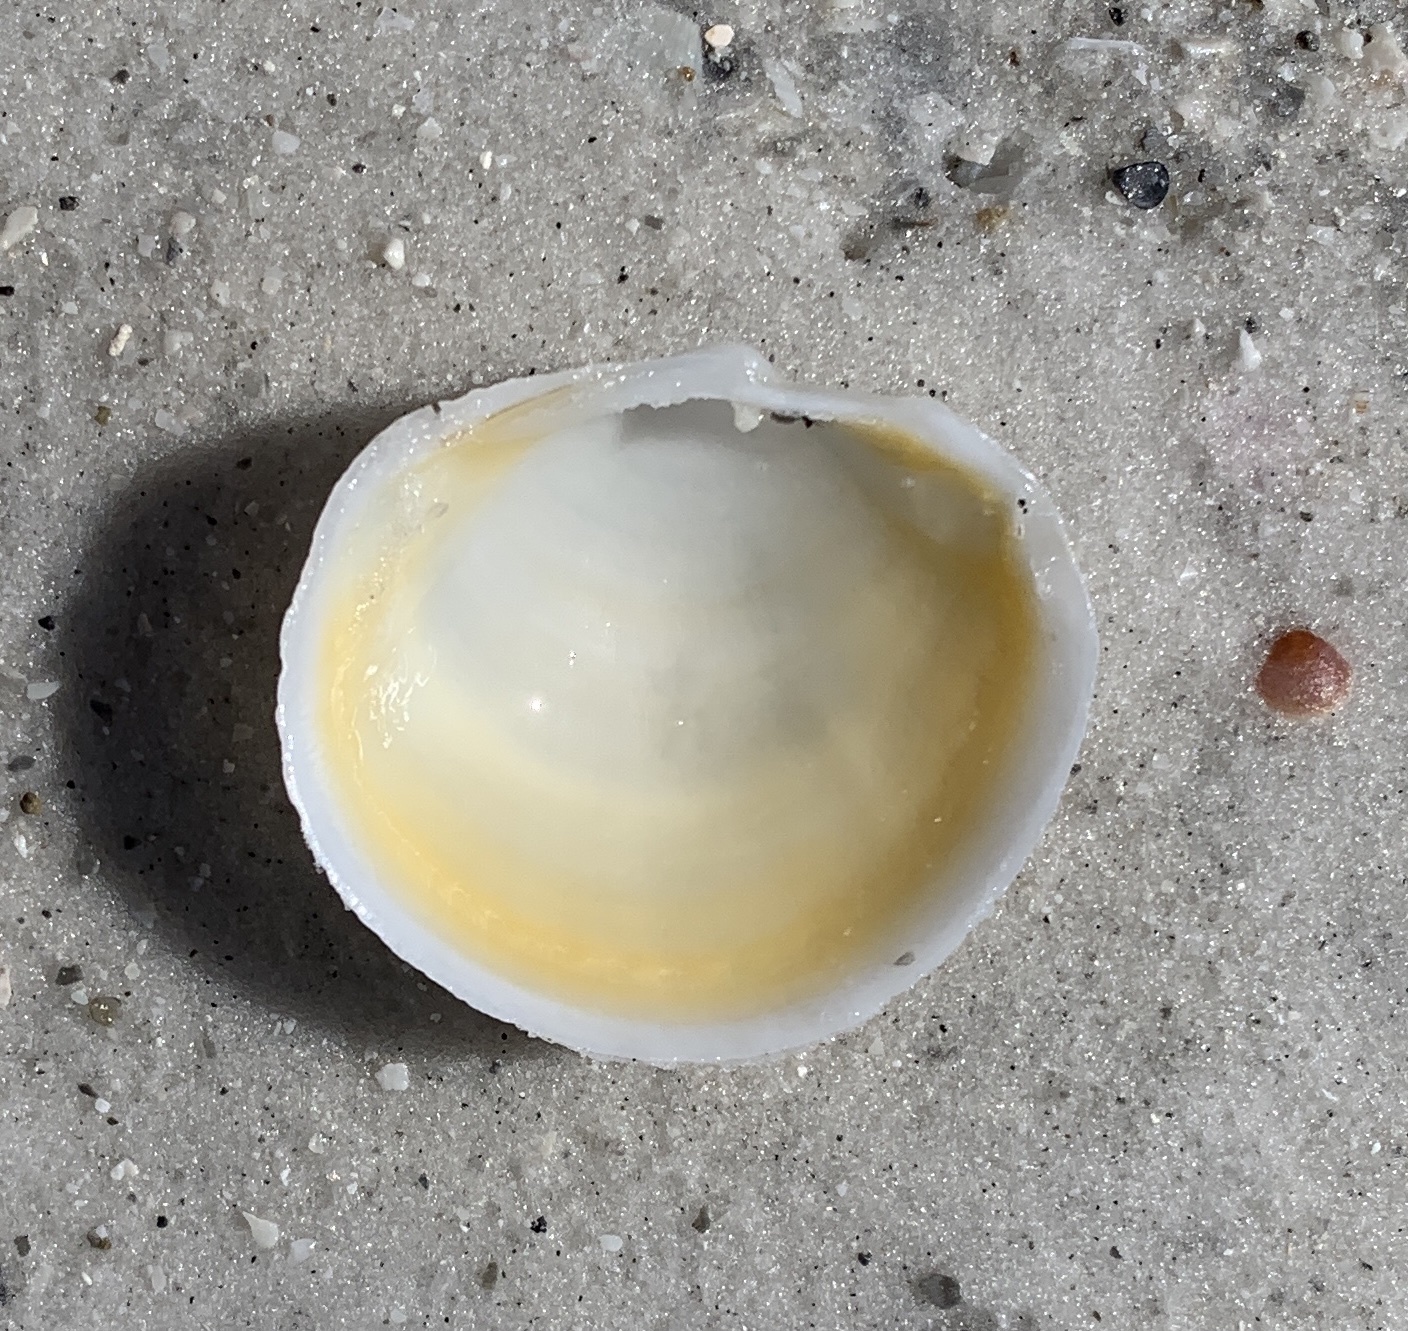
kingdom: Animalia
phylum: Mollusca
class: Bivalvia
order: Lucinida
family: Lucinidae
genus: Anodontia
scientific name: Anodontia alba
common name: Buttercup lucine
